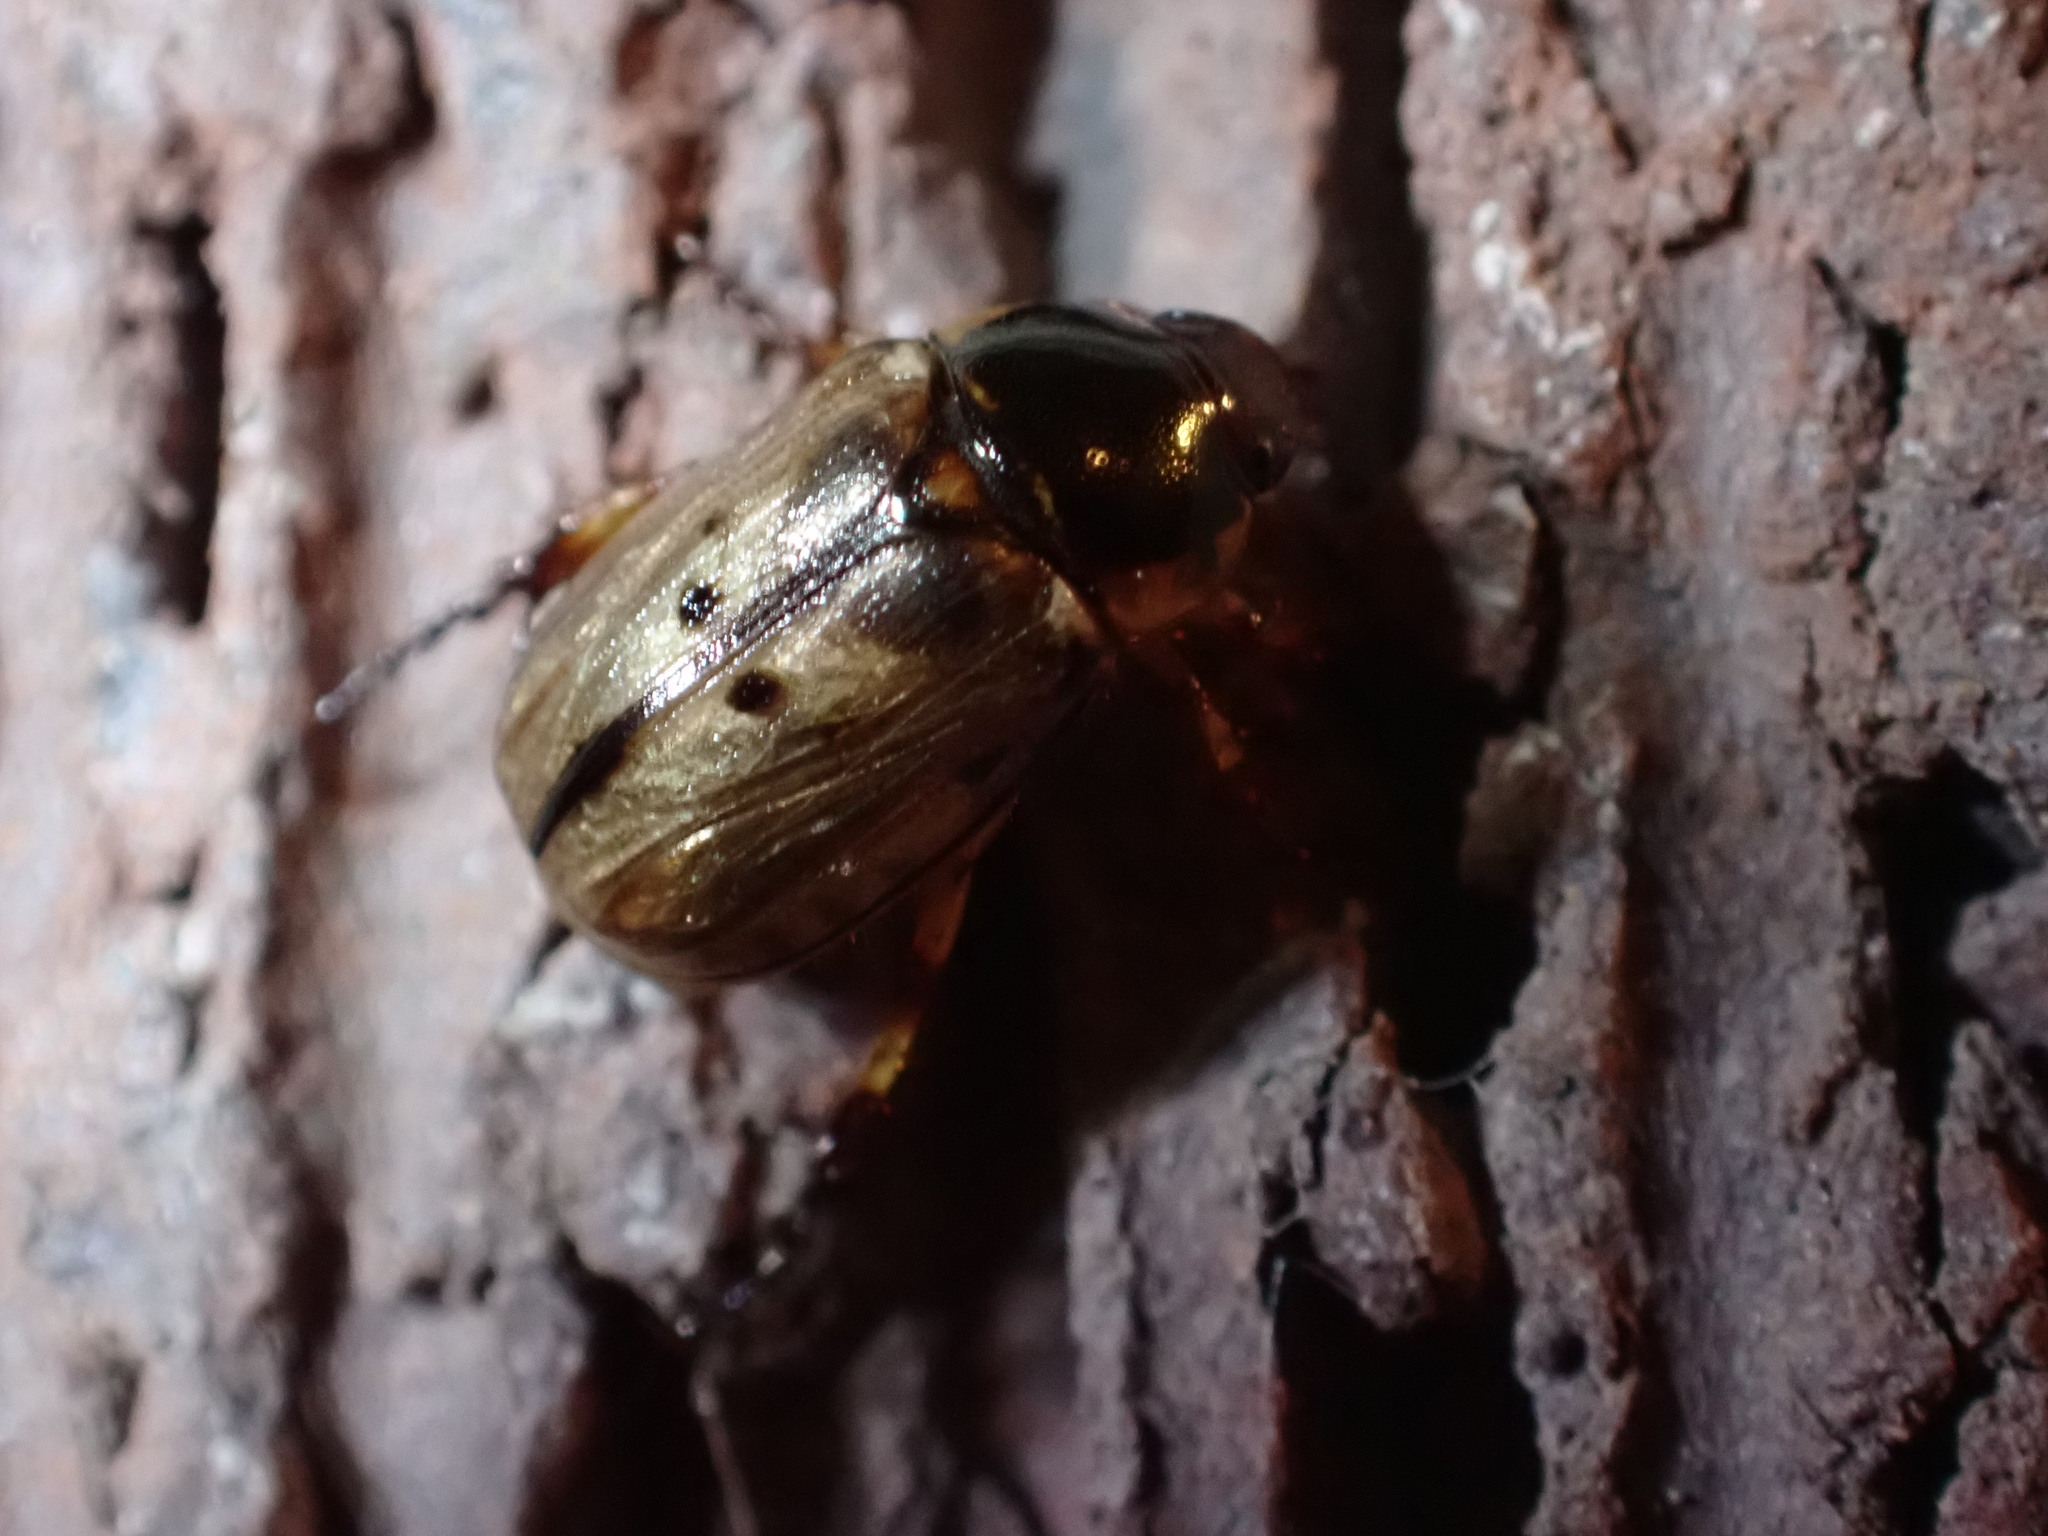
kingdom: Animalia
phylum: Arthropoda
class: Insecta
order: Coleoptera
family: Scarabaeidae
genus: Exomala
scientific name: Exomala orientalis
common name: Oriental beetle
